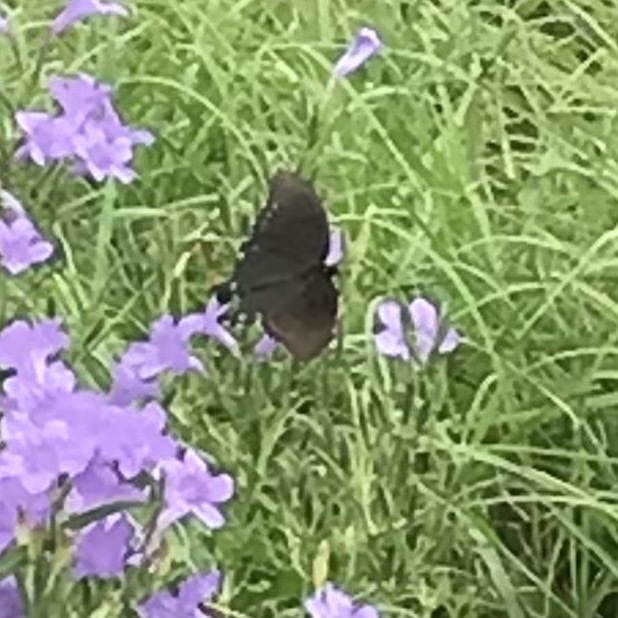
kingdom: Animalia
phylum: Arthropoda
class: Insecta
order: Lepidoptera
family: Papilionidae
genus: Battus
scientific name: Battus philenor
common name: Pipevine swallowtail
